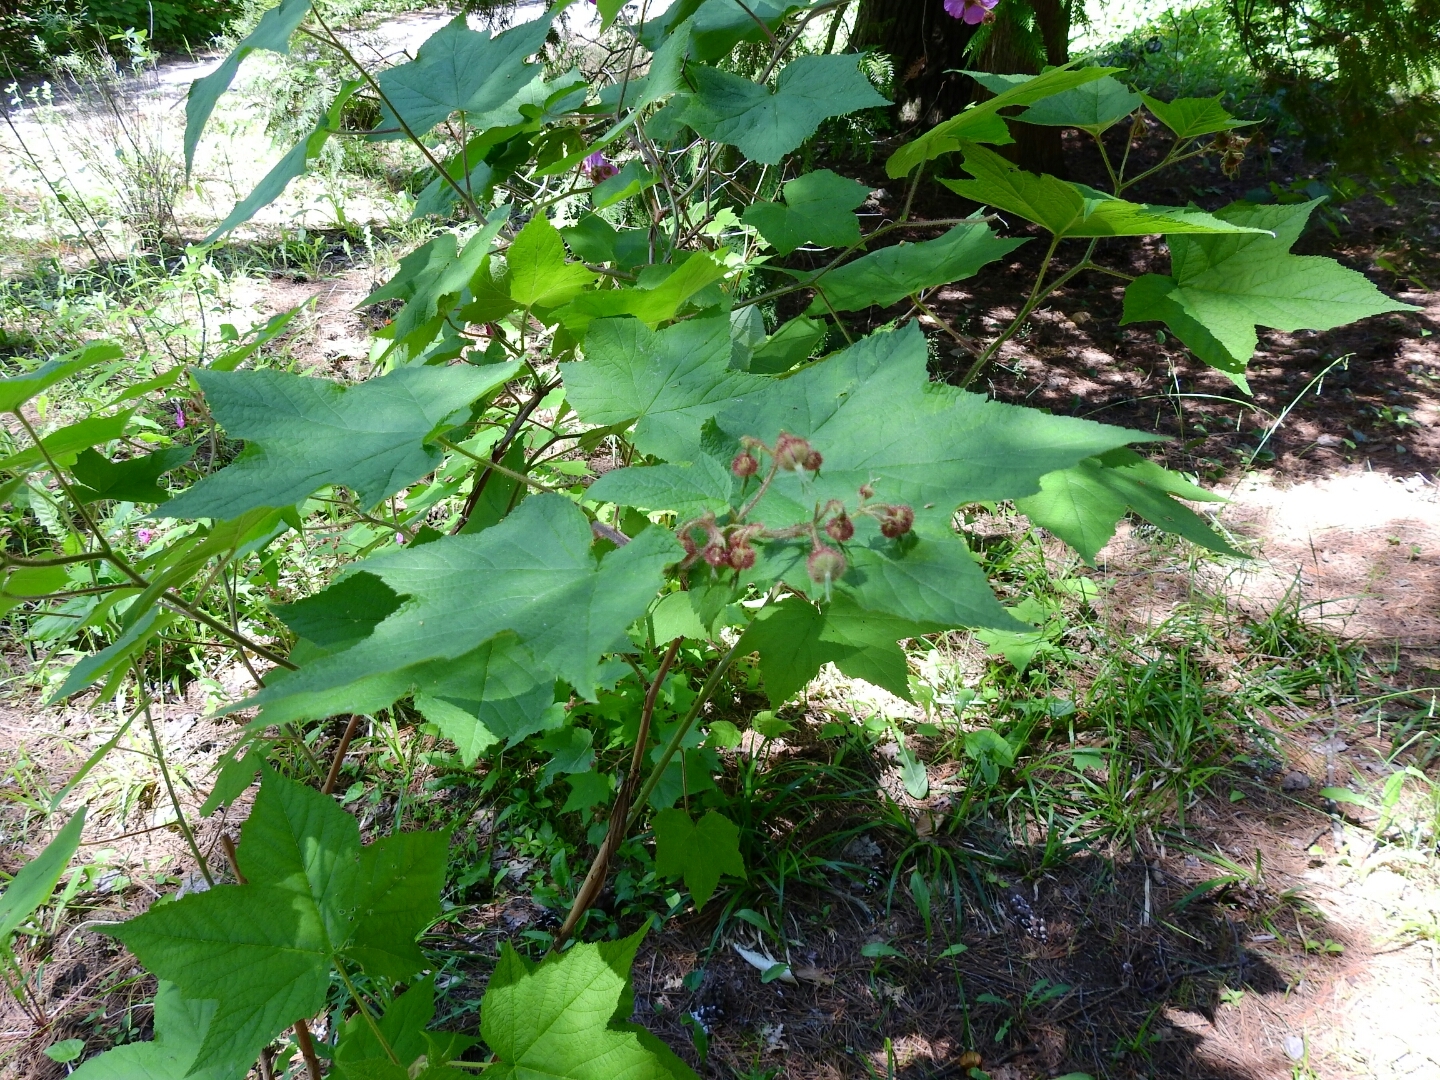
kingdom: Plantae
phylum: Tracheophyta
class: Magnoliopsida
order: Rosales
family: Rosaceae
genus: Rubus
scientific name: Rubus odoratus
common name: Purple-flowered raspberry
